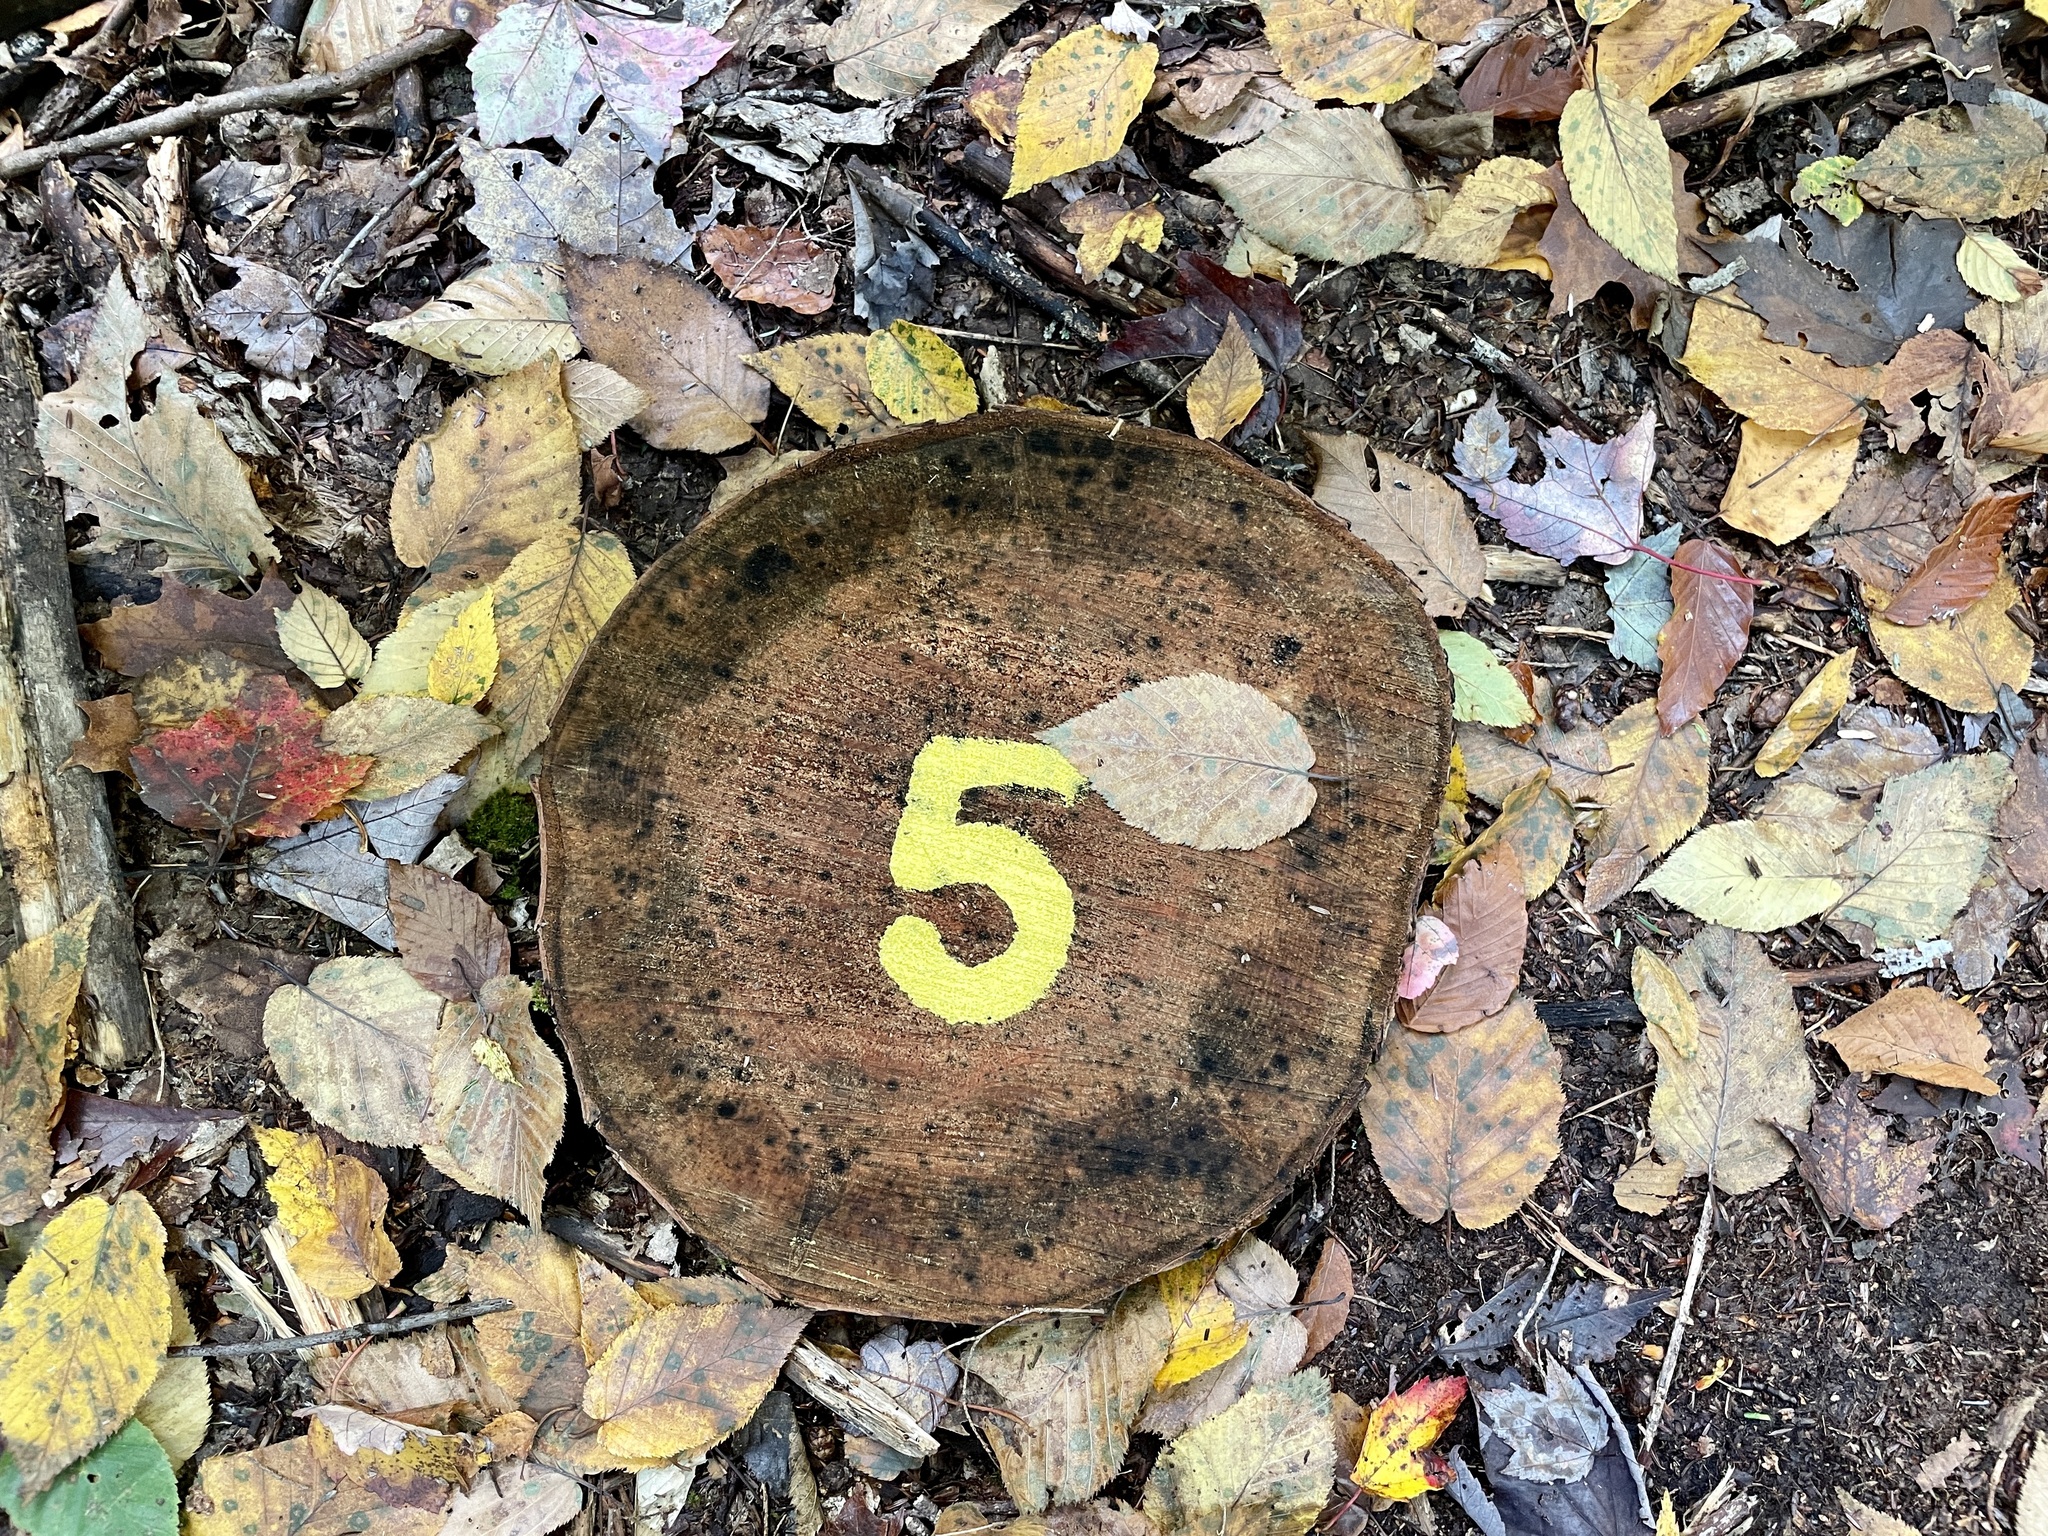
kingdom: Animalia
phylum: Chordata
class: Amphibia
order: Caudata
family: Plethodontidae
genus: Plethodon
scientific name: Plethodon cinereus
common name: Redback salamander
